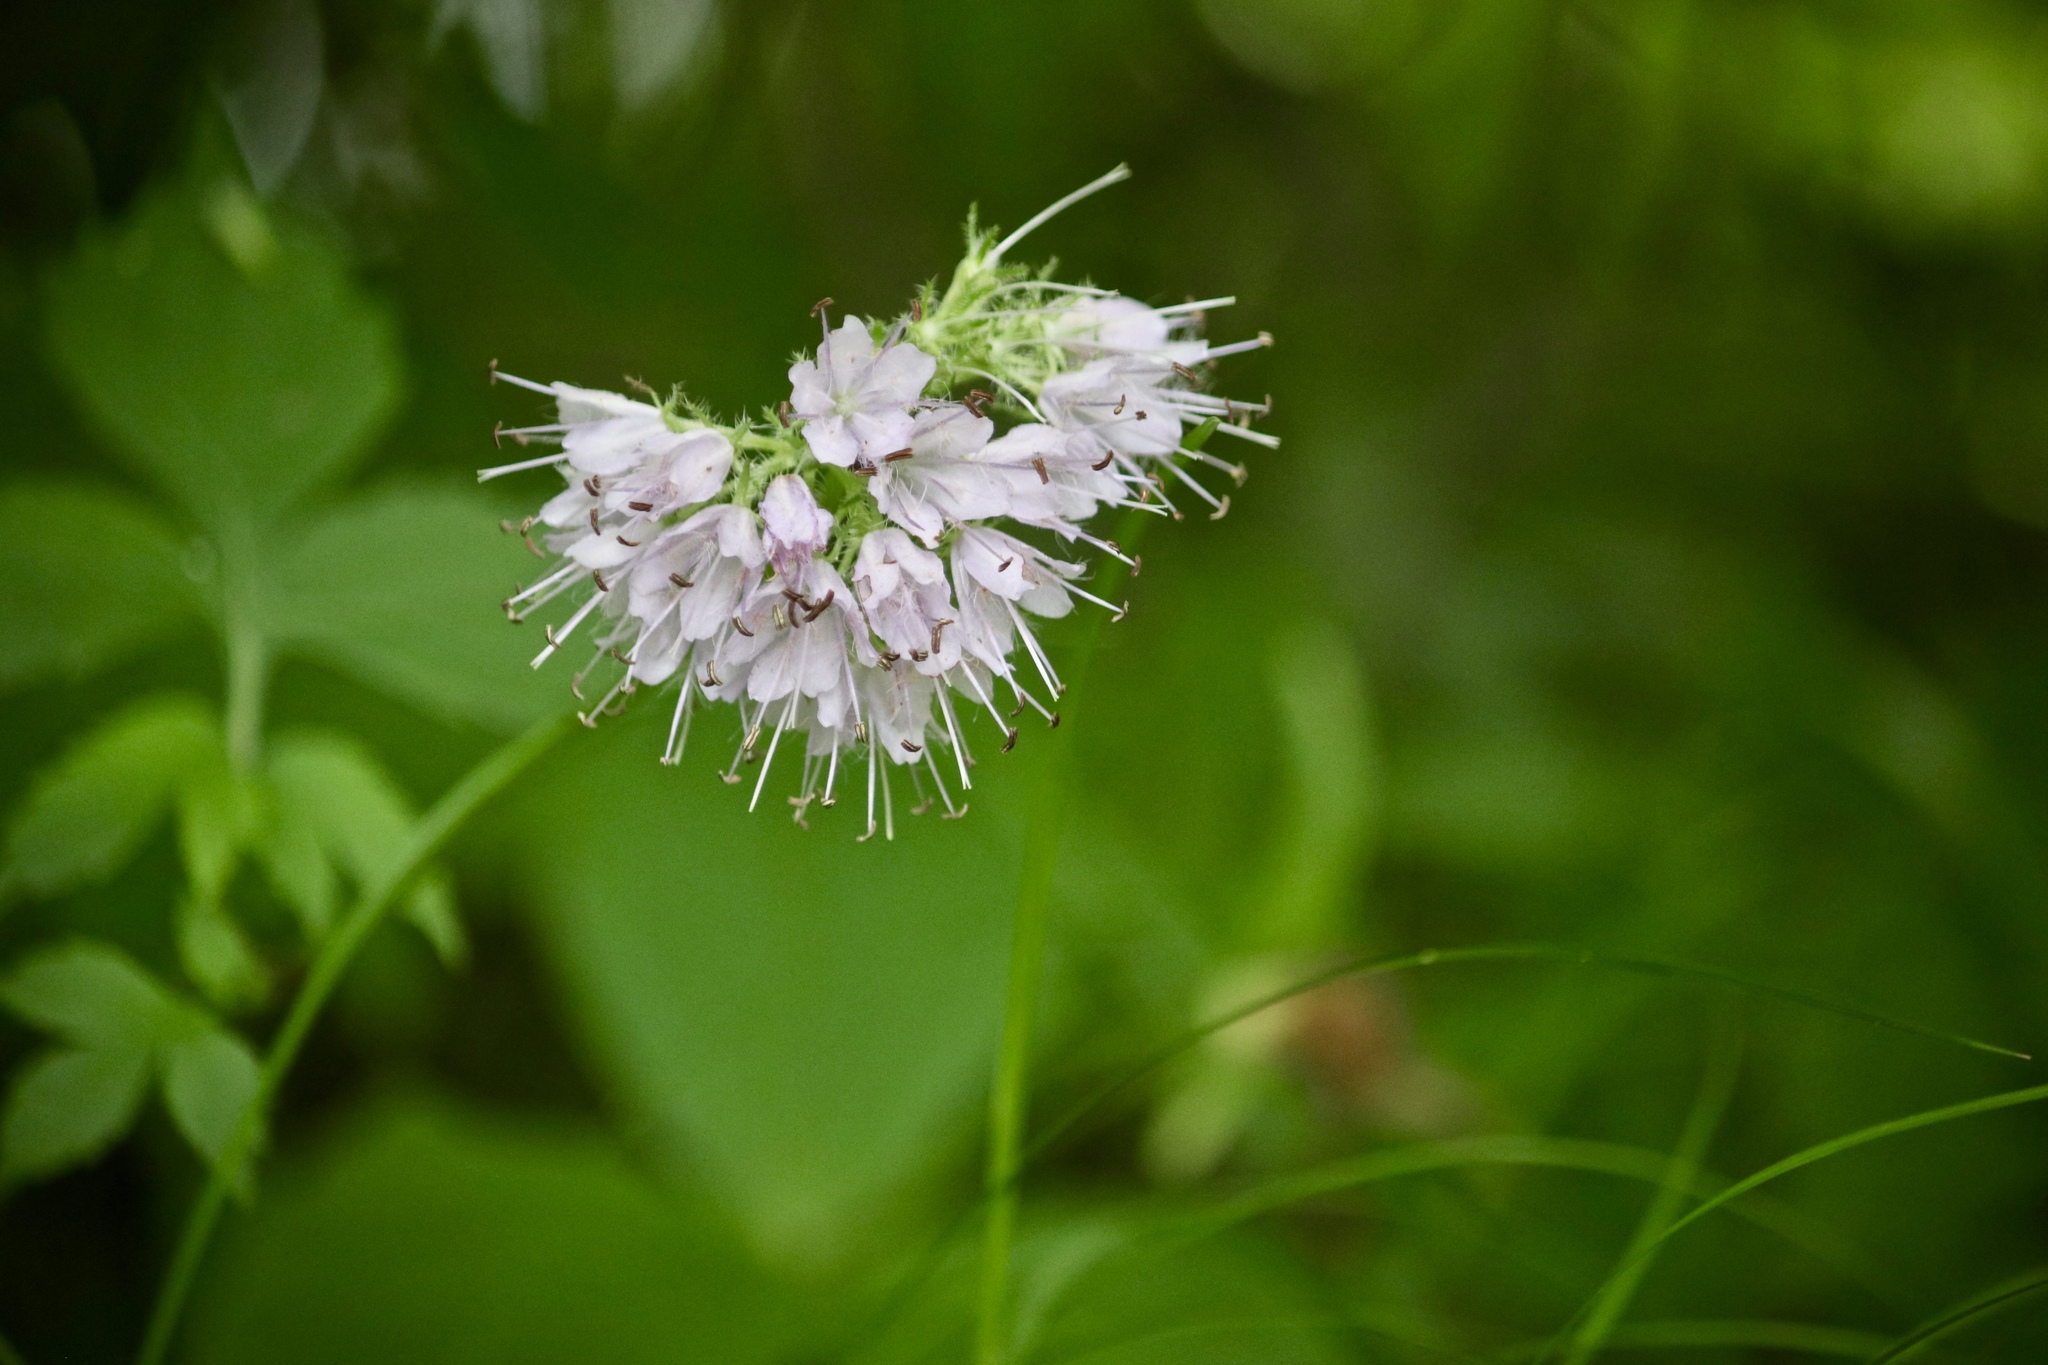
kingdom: Plantae
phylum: Tracheophyta
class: Magnoliopsida
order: Boraginales
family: Hydrophyllaceae
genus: Hydrophyllum
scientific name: Hydrophyllum virginianum
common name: Virginia waterleaf
